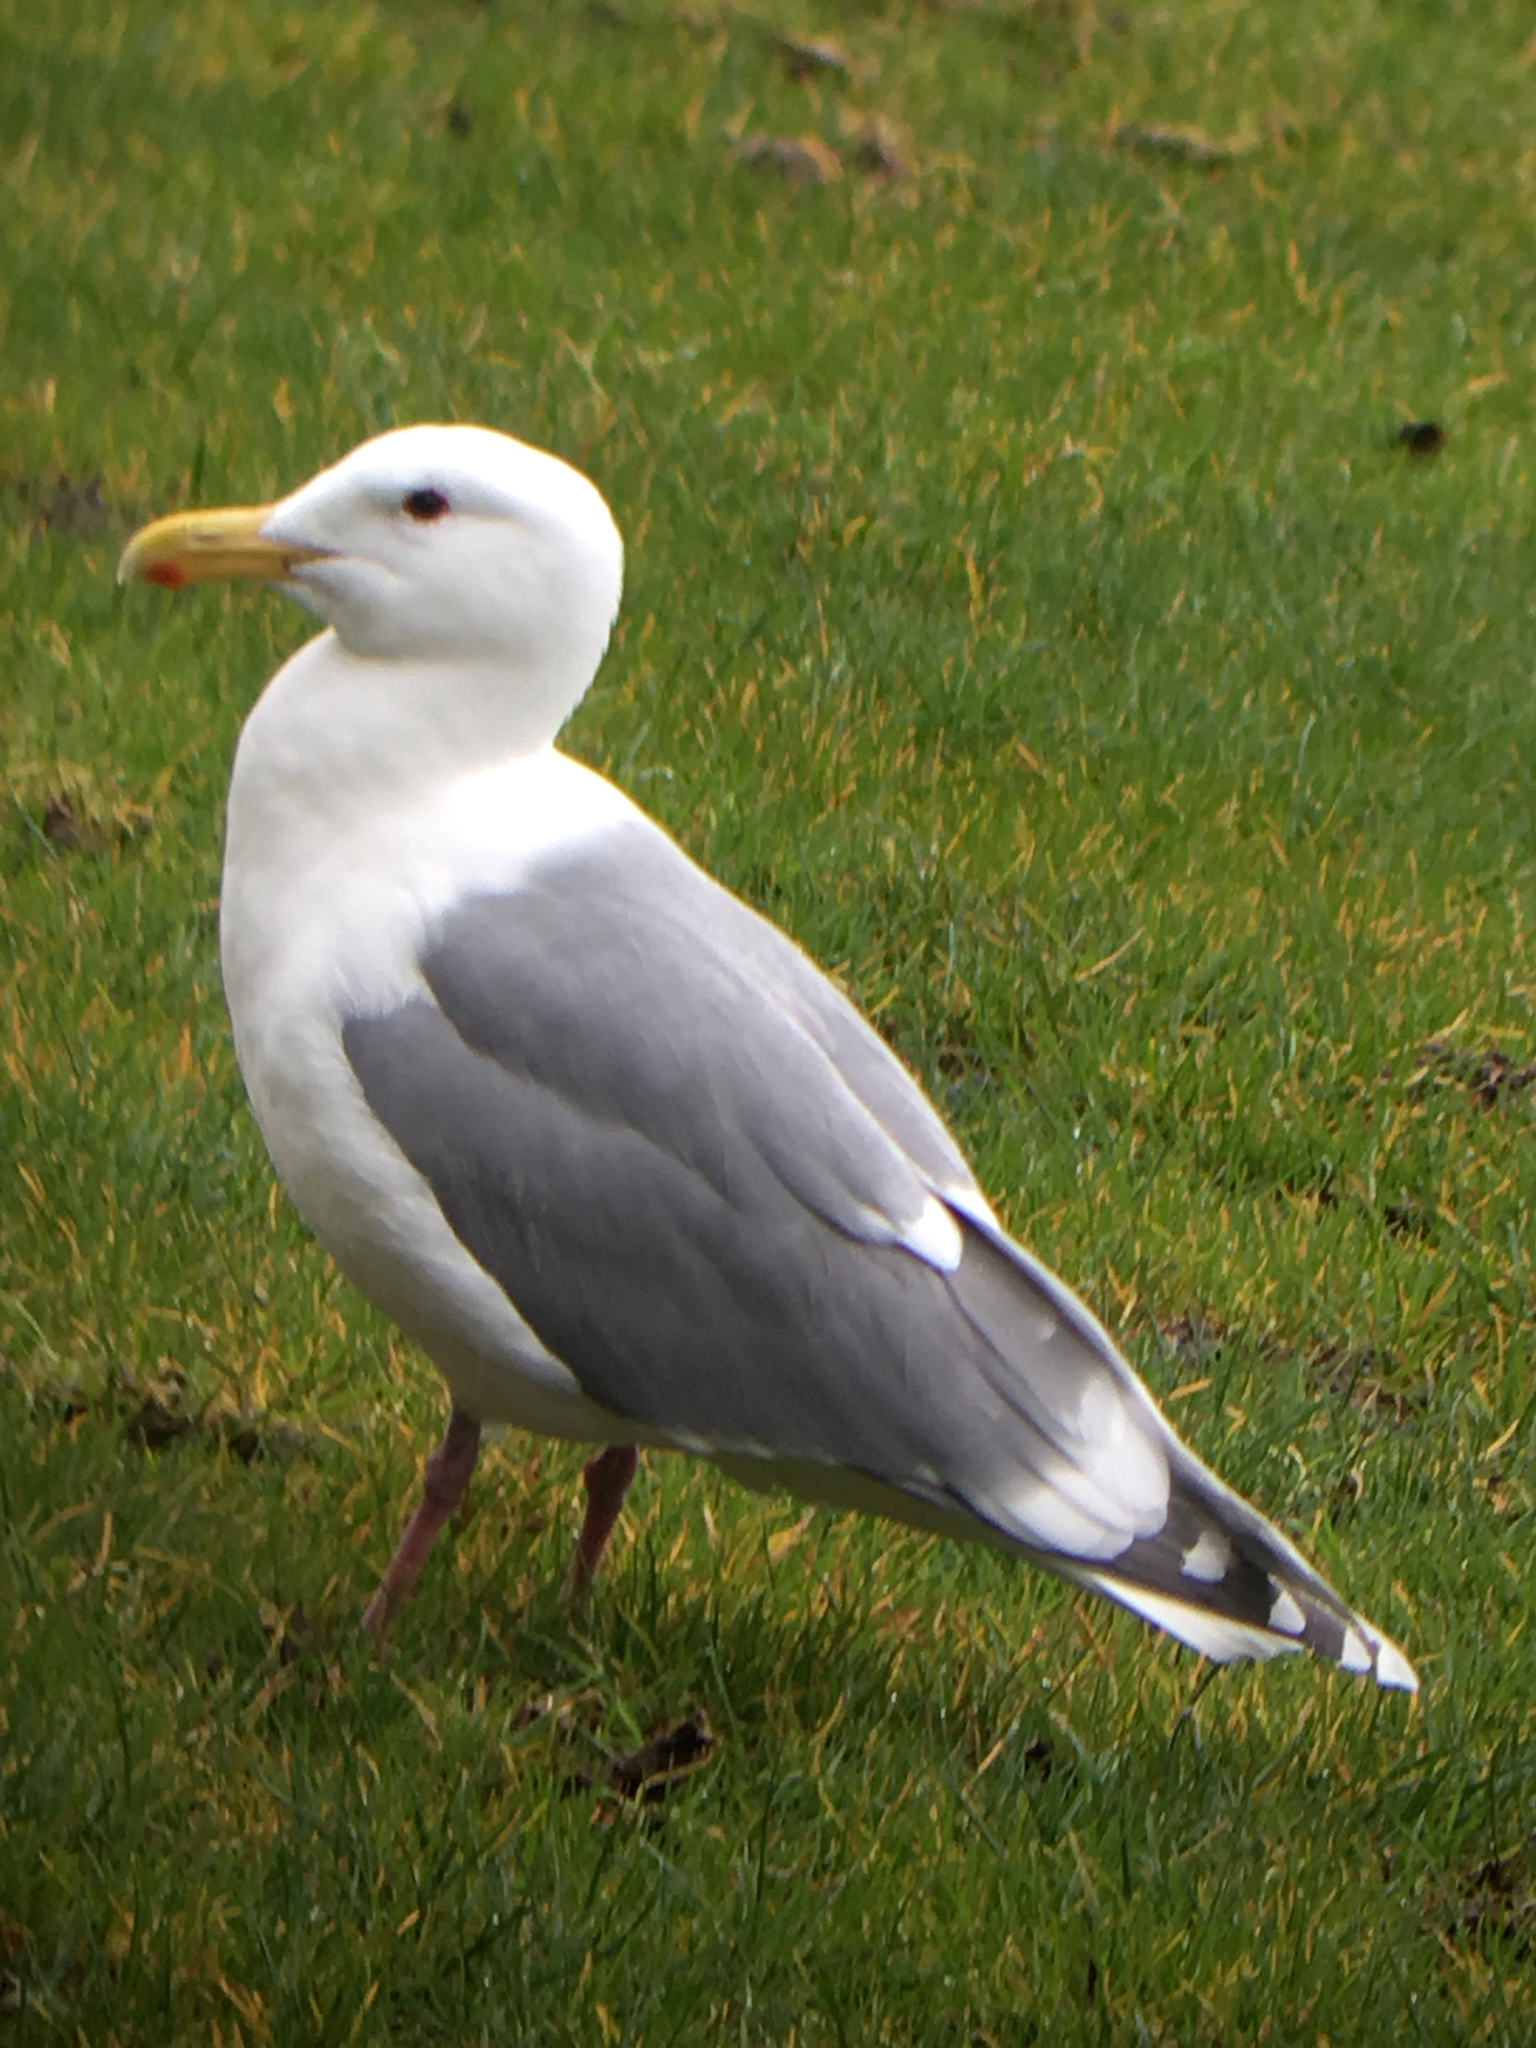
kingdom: Animalia
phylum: Chordata
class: Aves
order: Charadriiformes
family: Laridae
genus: Larus
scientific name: Larus
